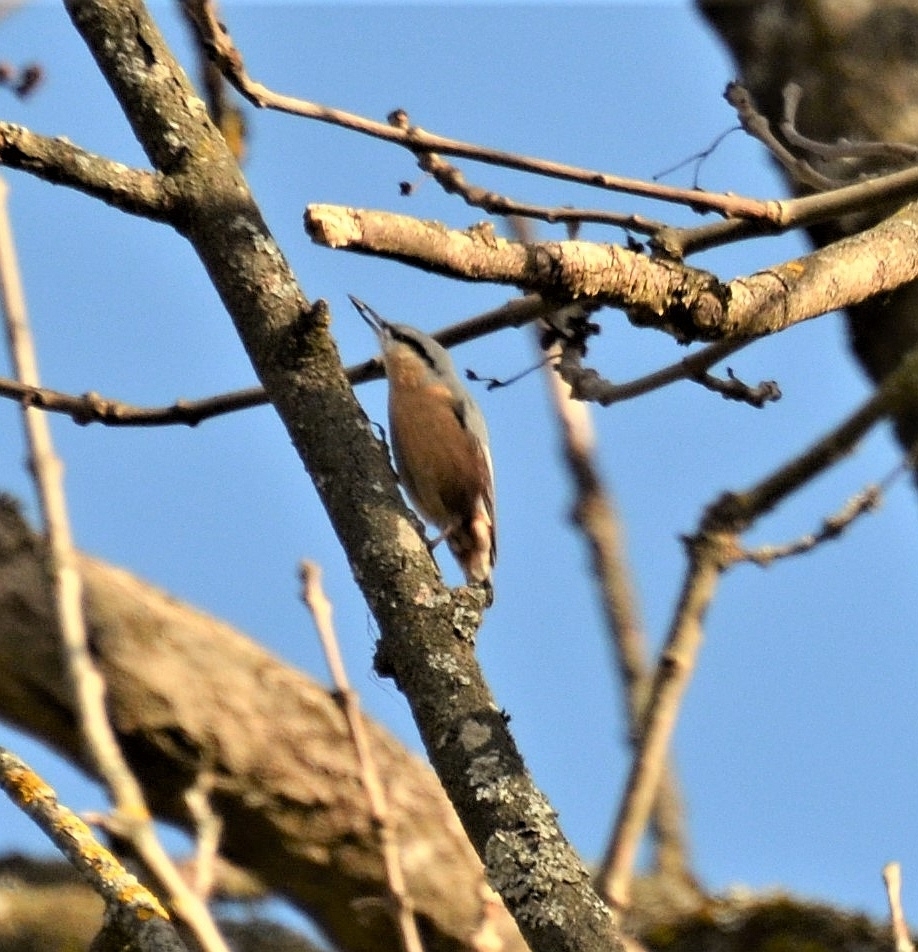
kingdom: Animalia
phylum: Chordata
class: Aves
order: Passeriformes
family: Sittidae
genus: Sitta
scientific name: Sitta europaea
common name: Eurasian nuthatch
